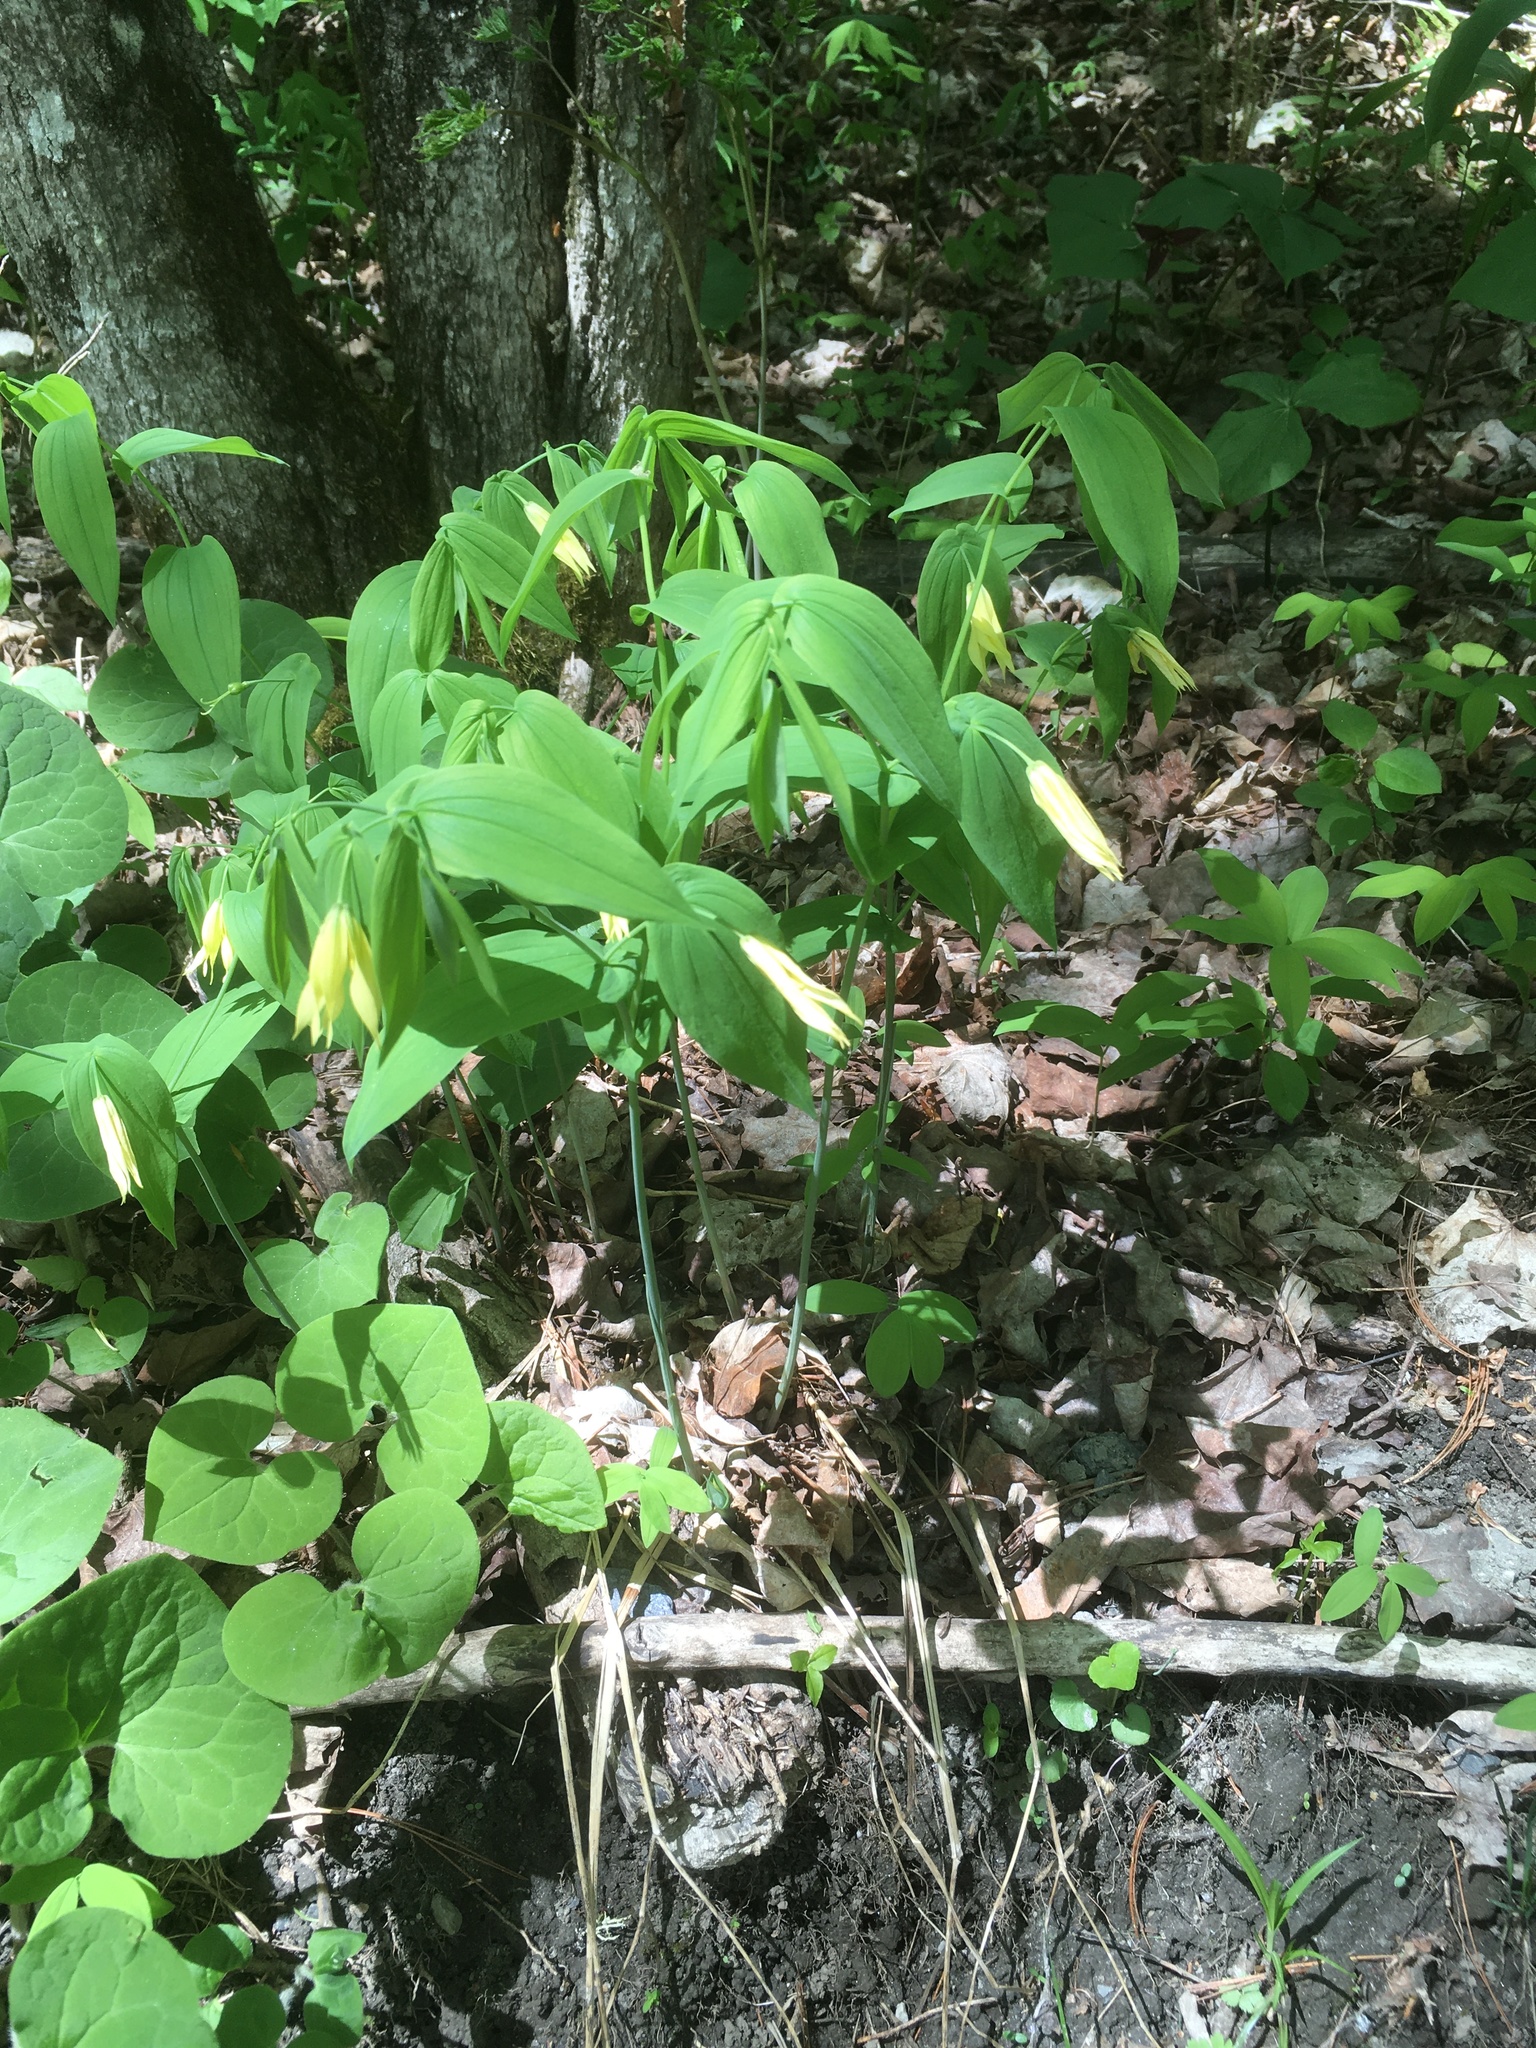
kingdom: Plantae
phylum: Tracheophyta
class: Liliopsida
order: Liliales
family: Colchicaceae
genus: Uvularia
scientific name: Uvularia grandiflora
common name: Bellwort
